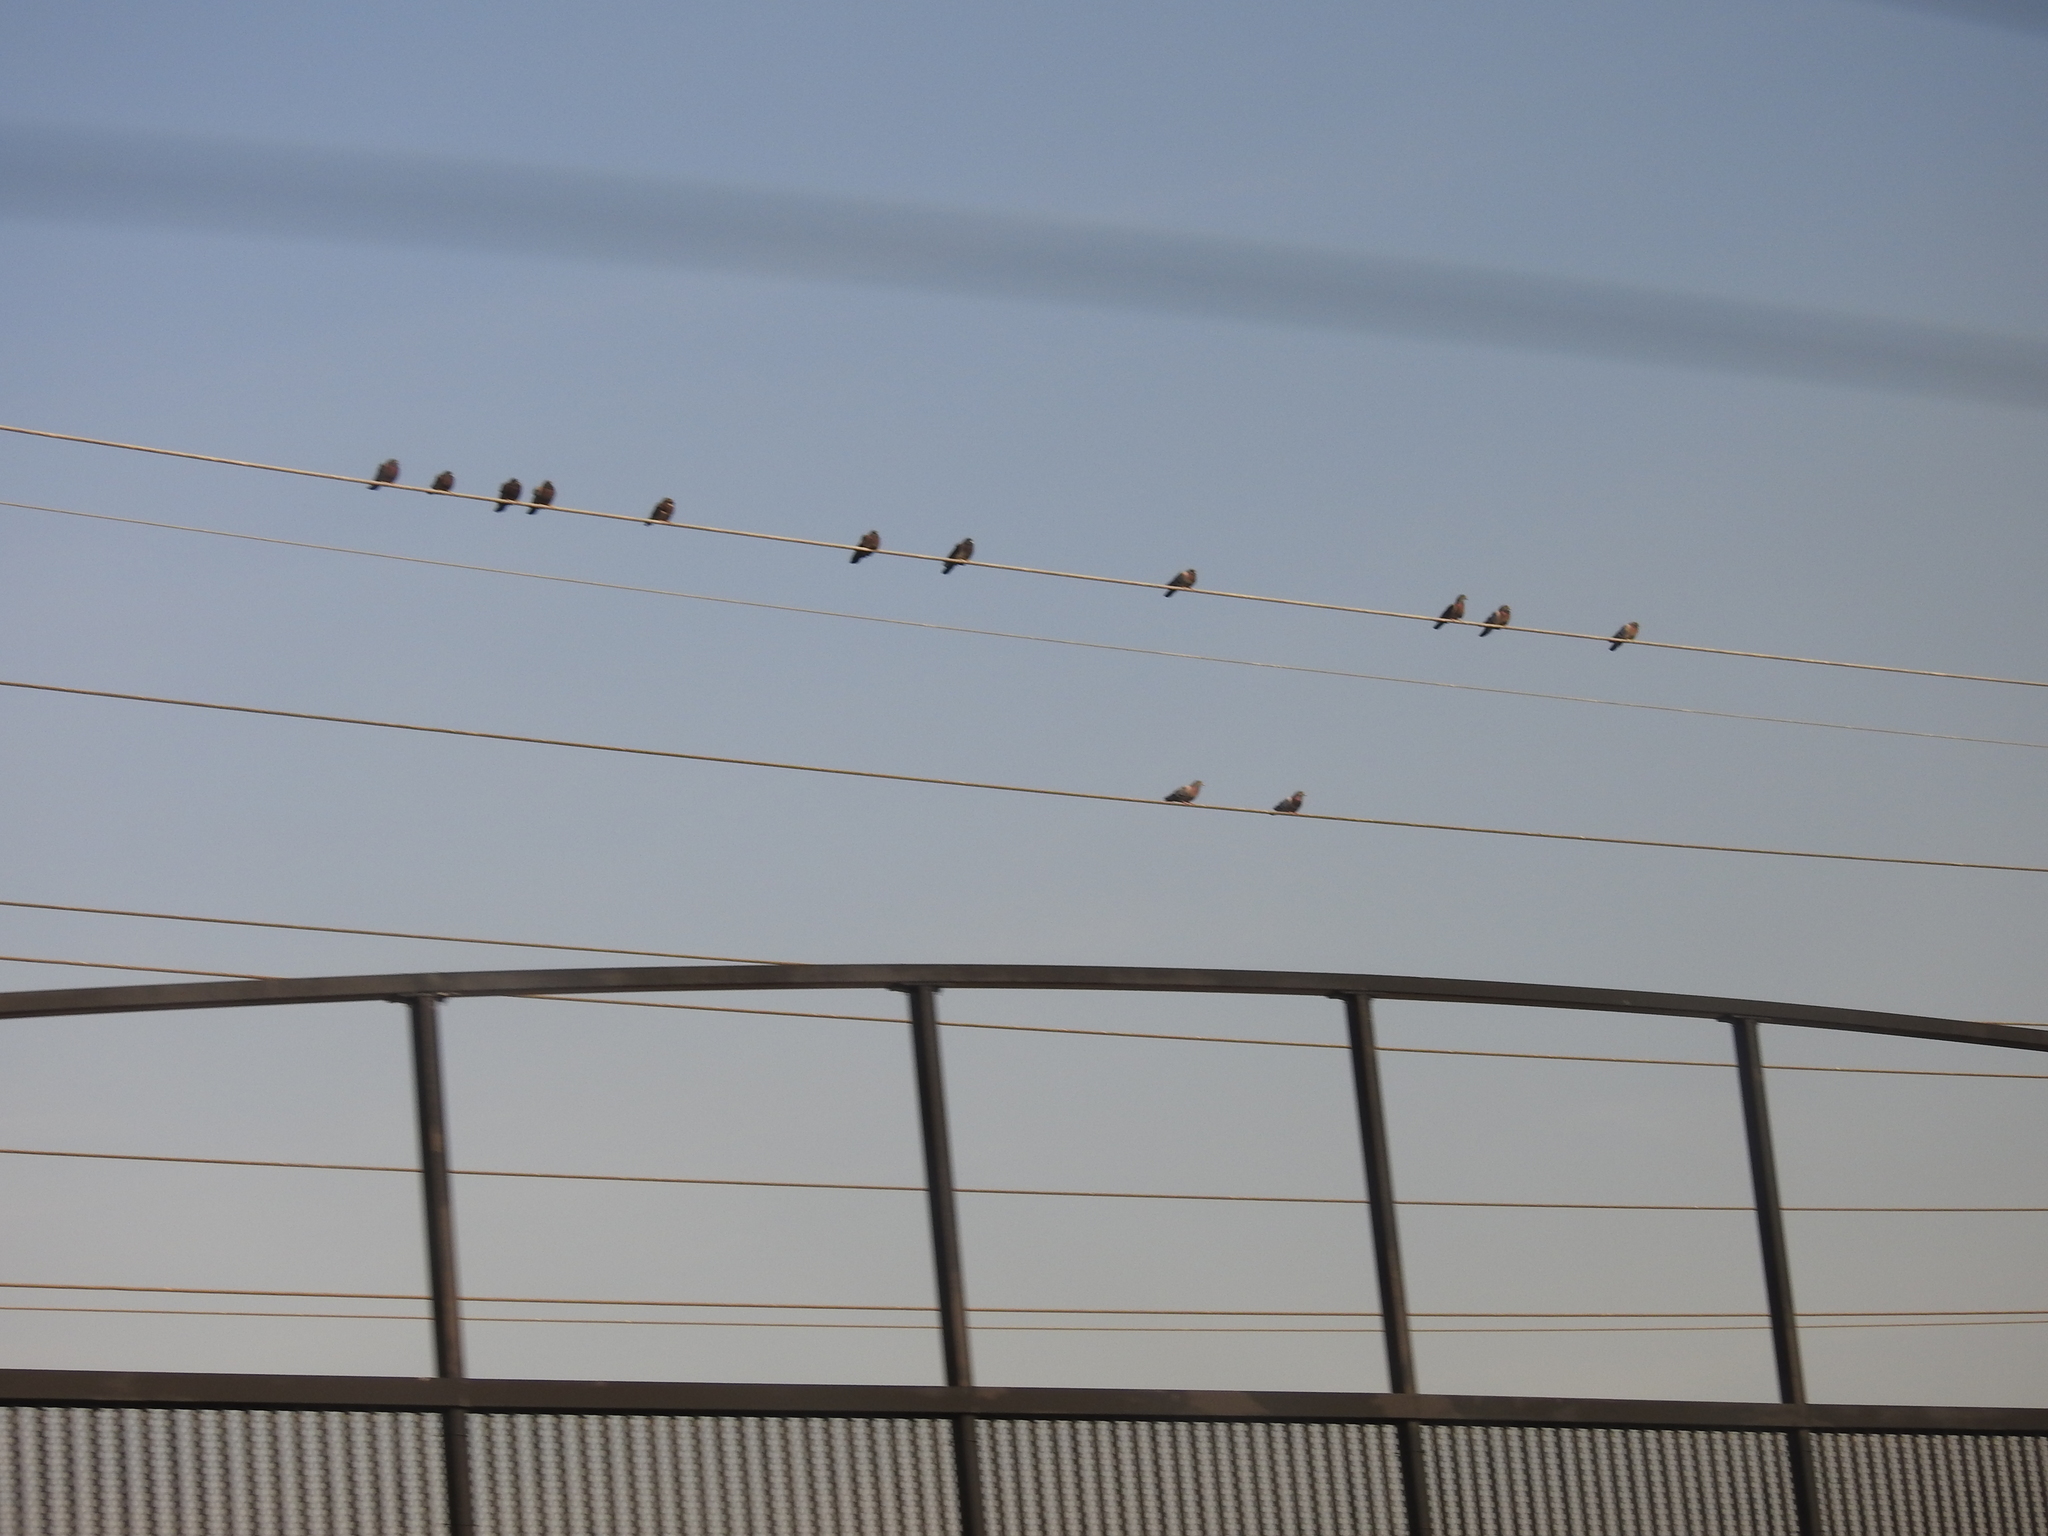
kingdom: Animalia
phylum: Chordata
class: Aves
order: Columbiformes
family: Columbidae
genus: Columba
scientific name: Columba livia
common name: Rock pigeon
